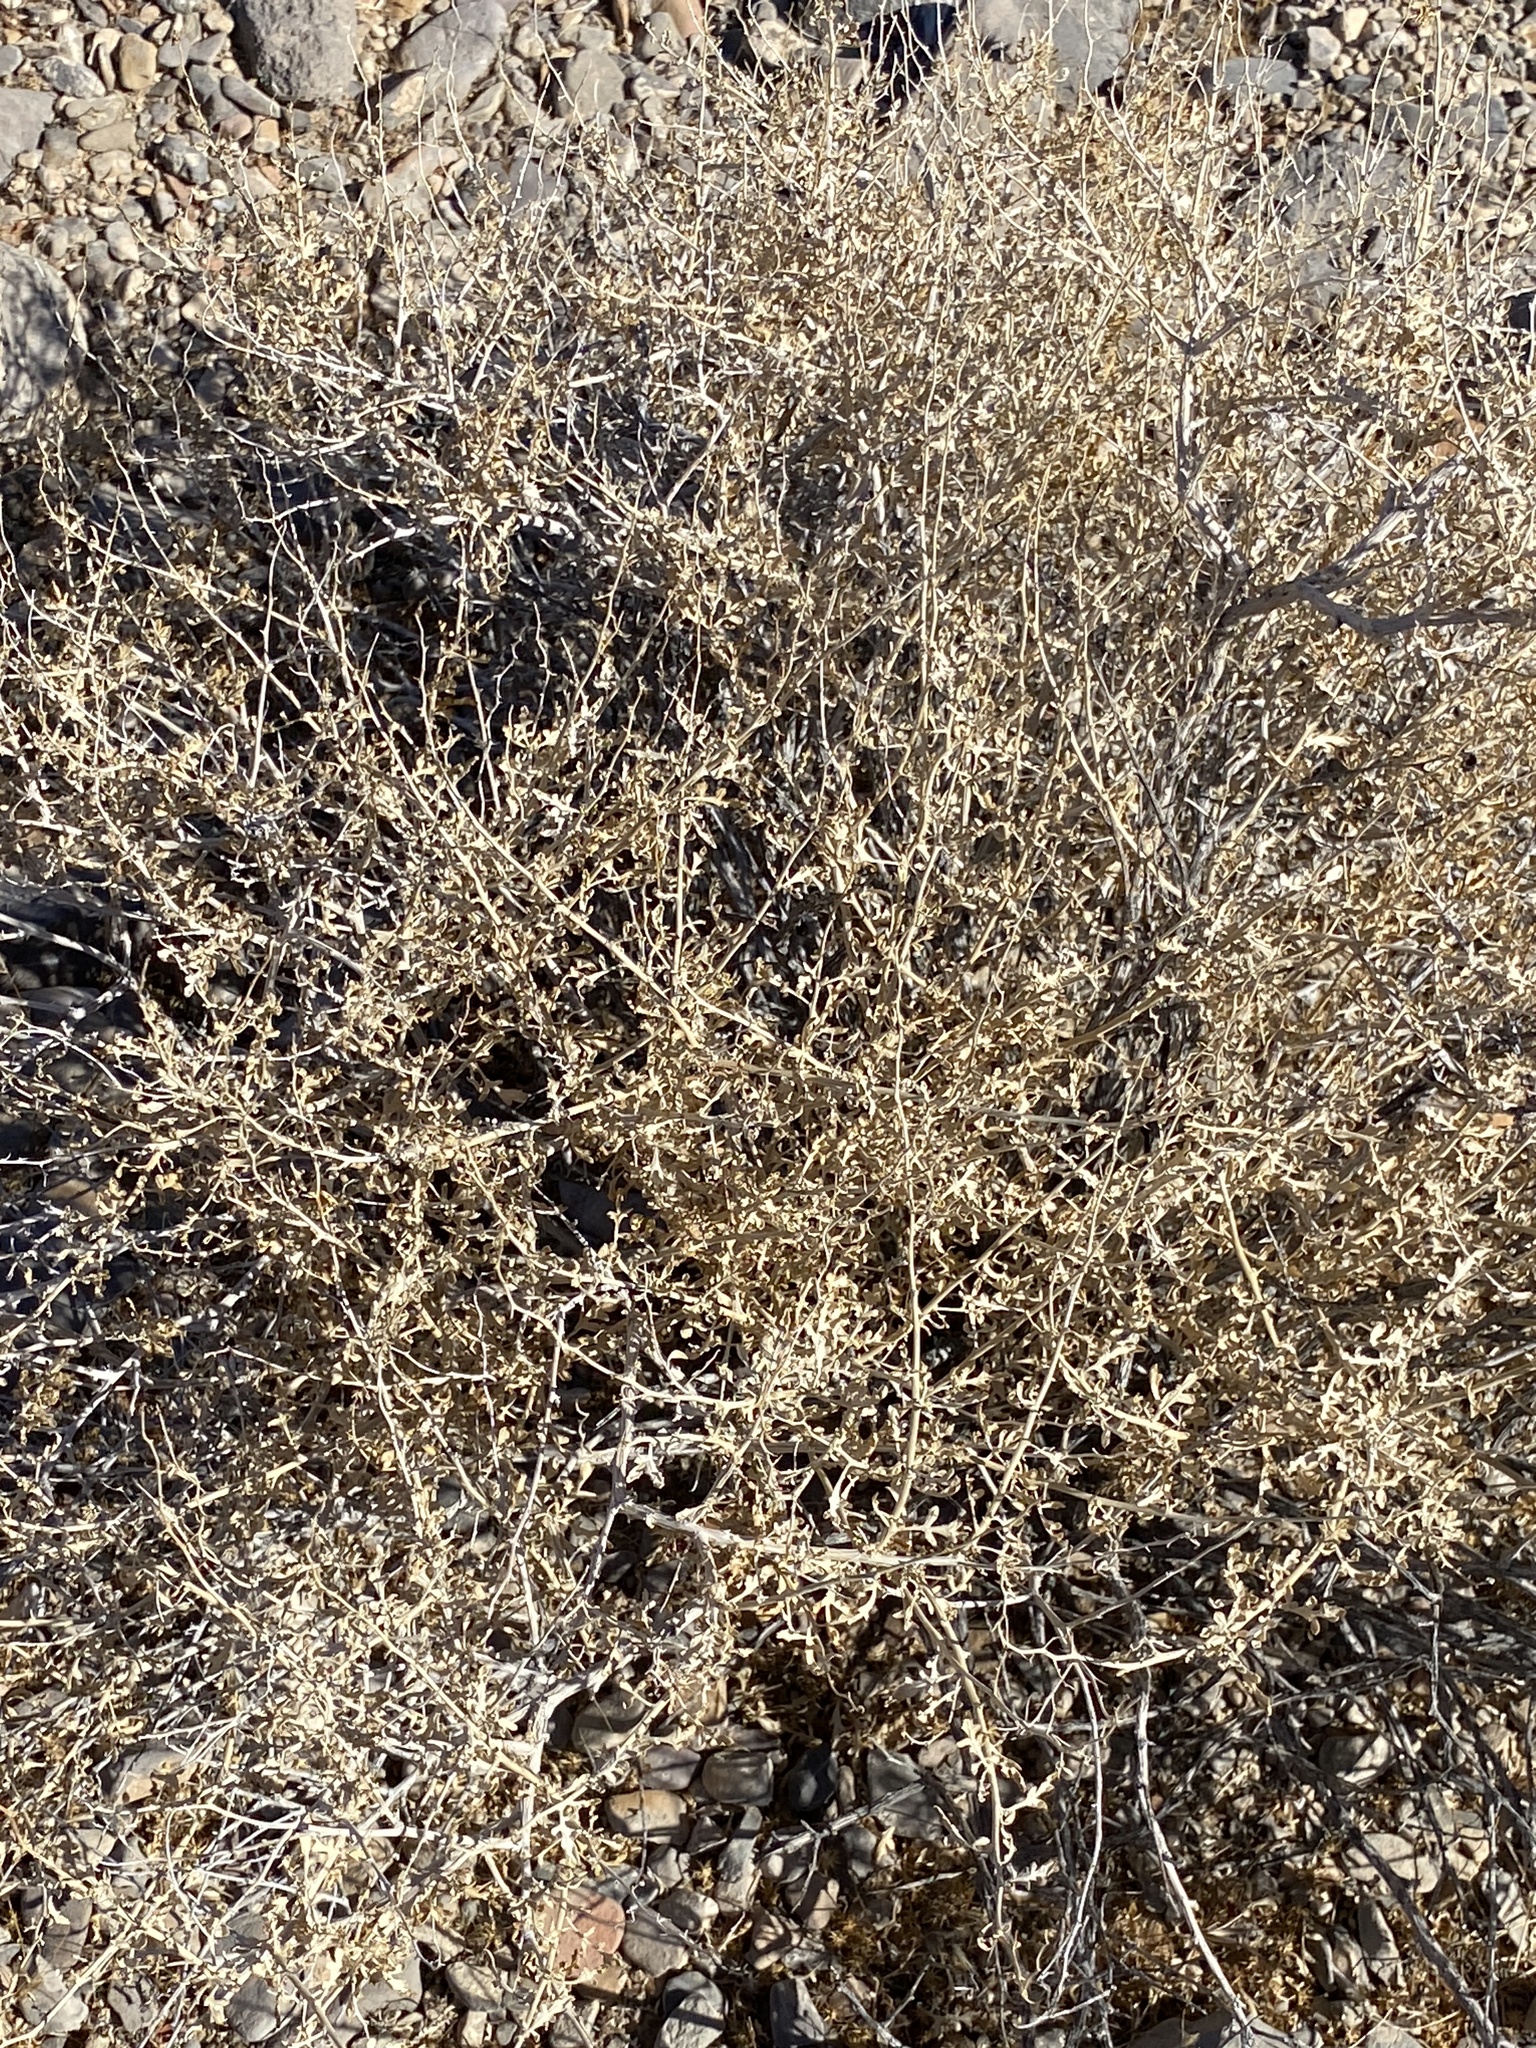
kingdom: Plantae
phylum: Tracheophyta
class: Magnoliopsida
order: Asterales
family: Asteraceae
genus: Ambrosia
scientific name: Ambrosia dumosa
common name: Bur-sage
